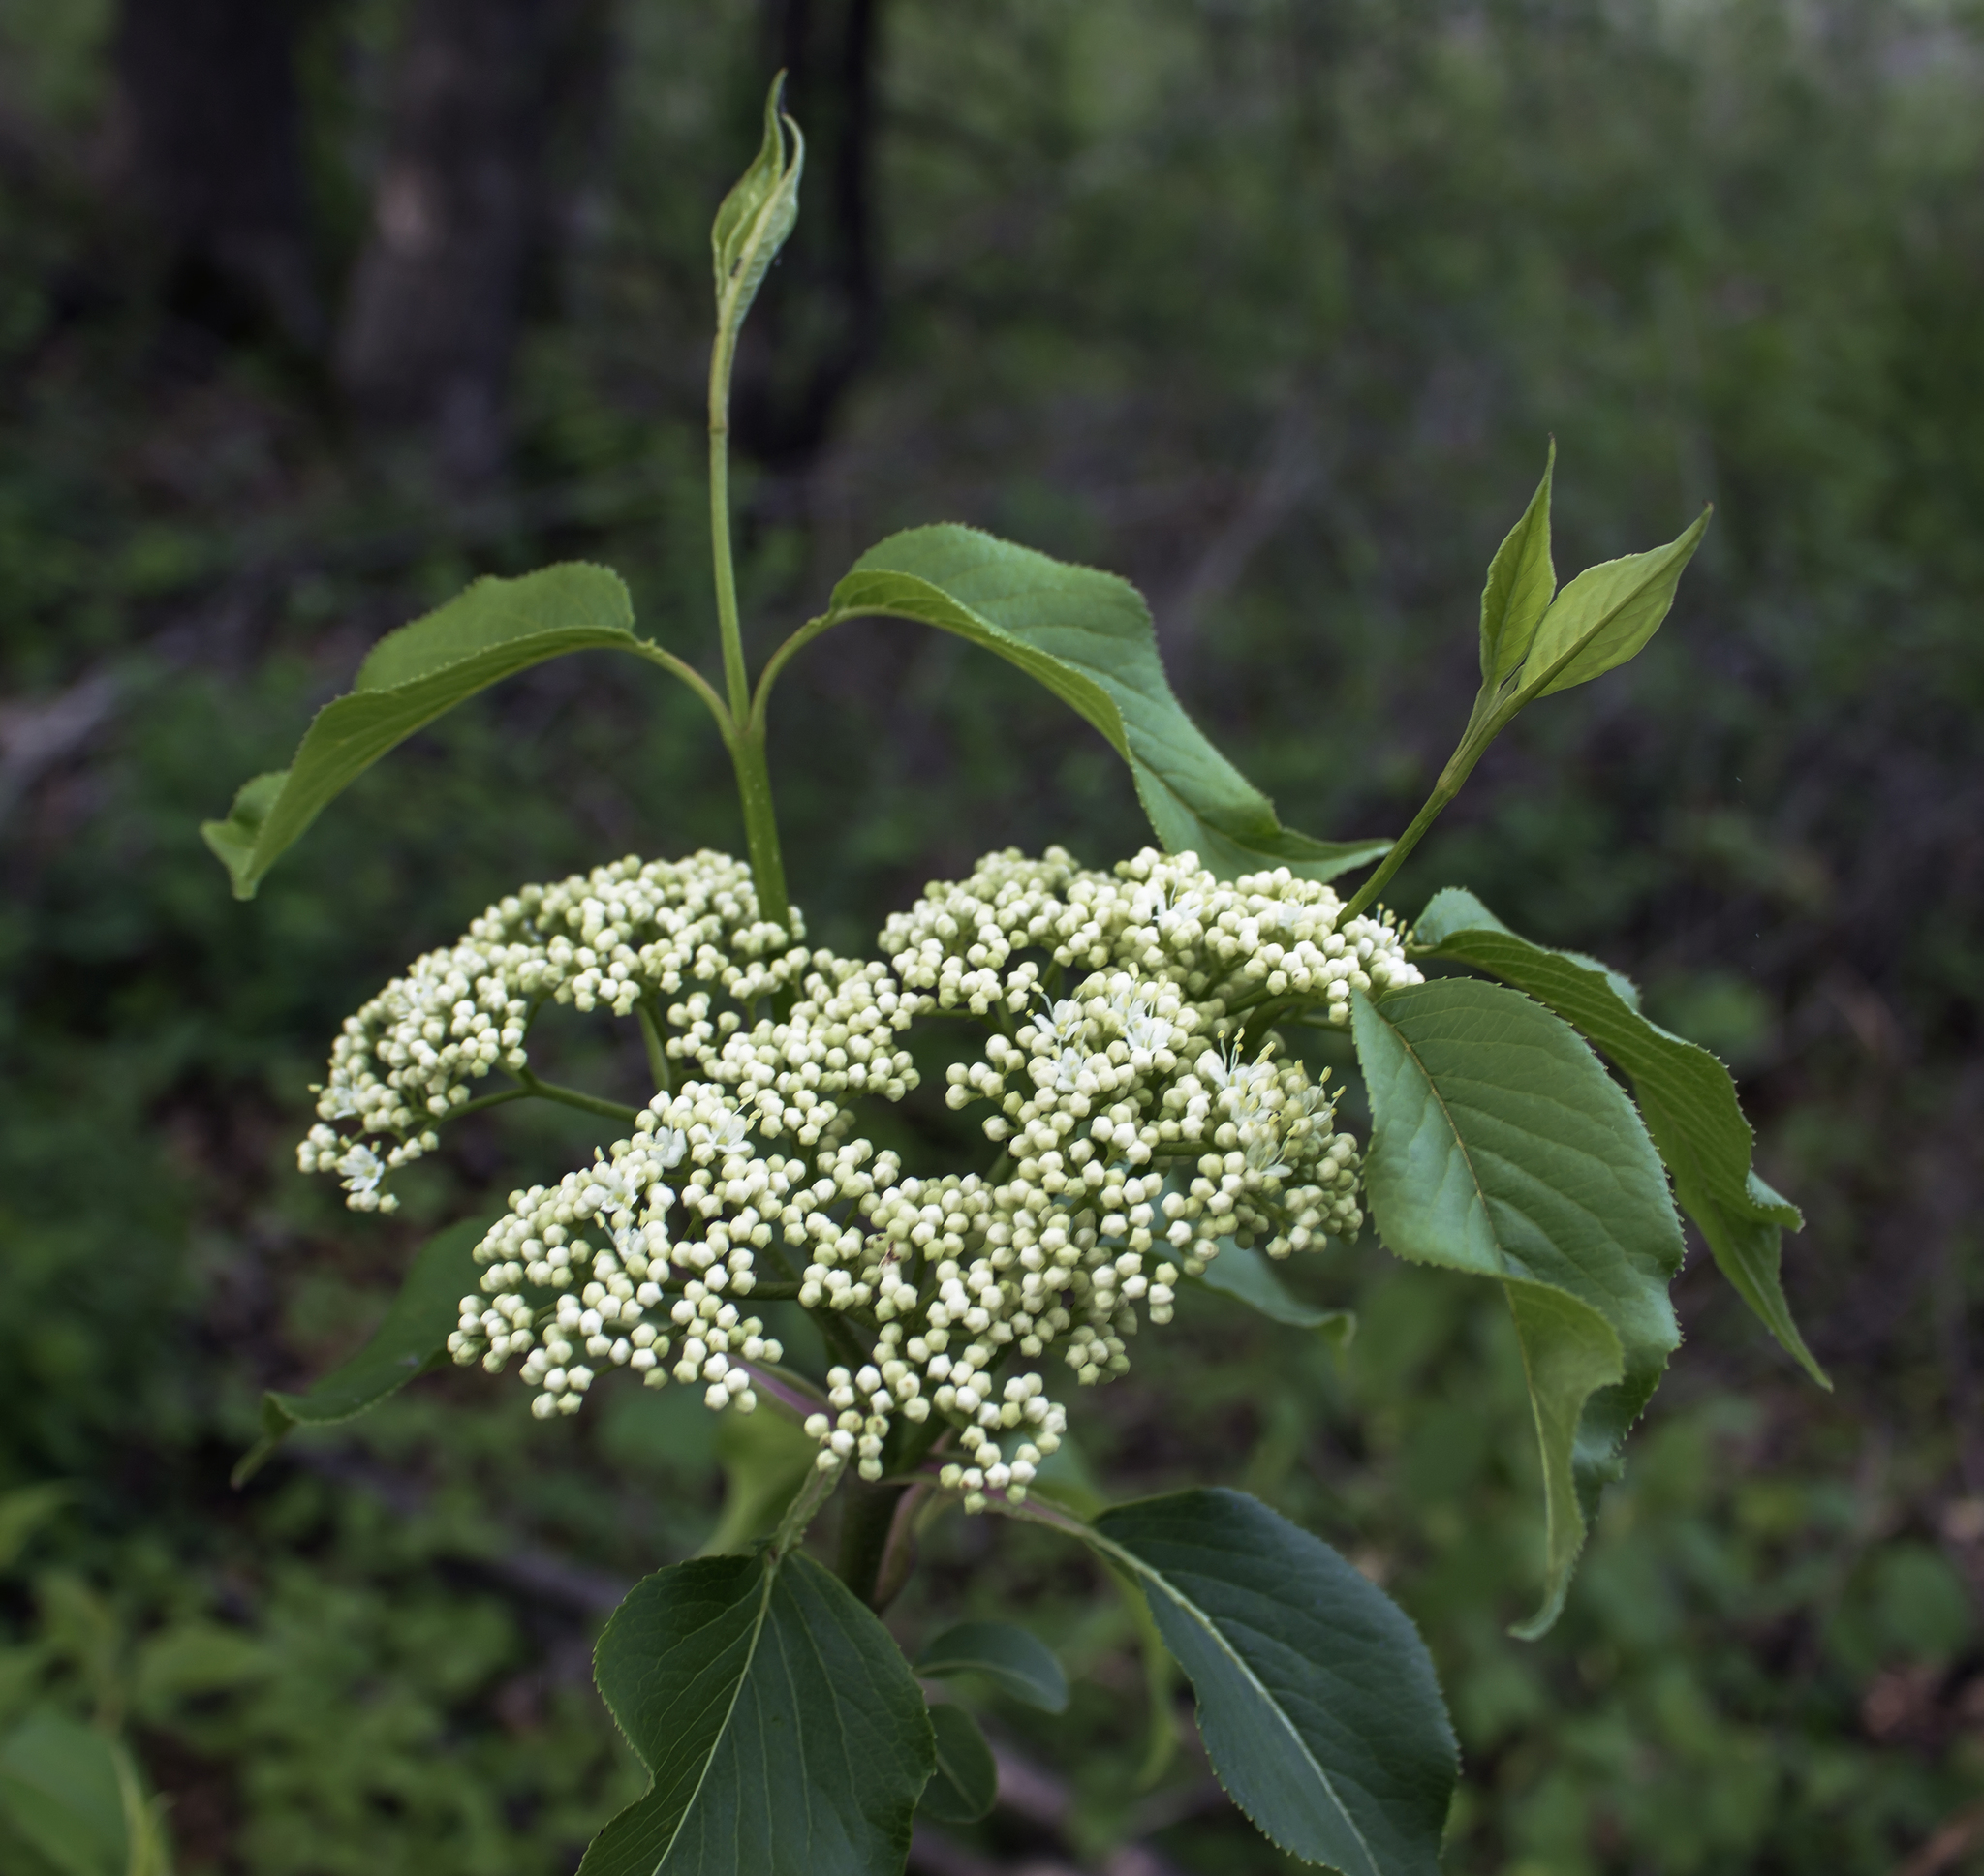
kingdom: Plantae
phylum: Tracheophyta
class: Magnoliopsida
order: Dipsacales
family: Viburnaceae
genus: Viburnum
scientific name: Viburnum lentago
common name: Black haw
